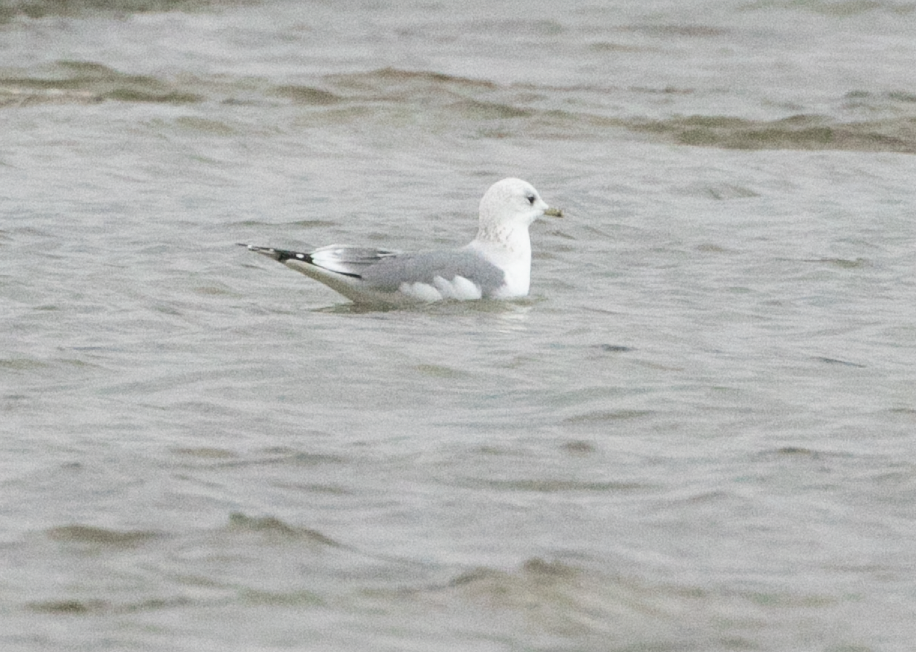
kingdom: Animalia
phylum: Chordata
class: Aves
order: Charadriiformes
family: Laridae
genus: Larus
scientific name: Larus canus
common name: Mew gull
